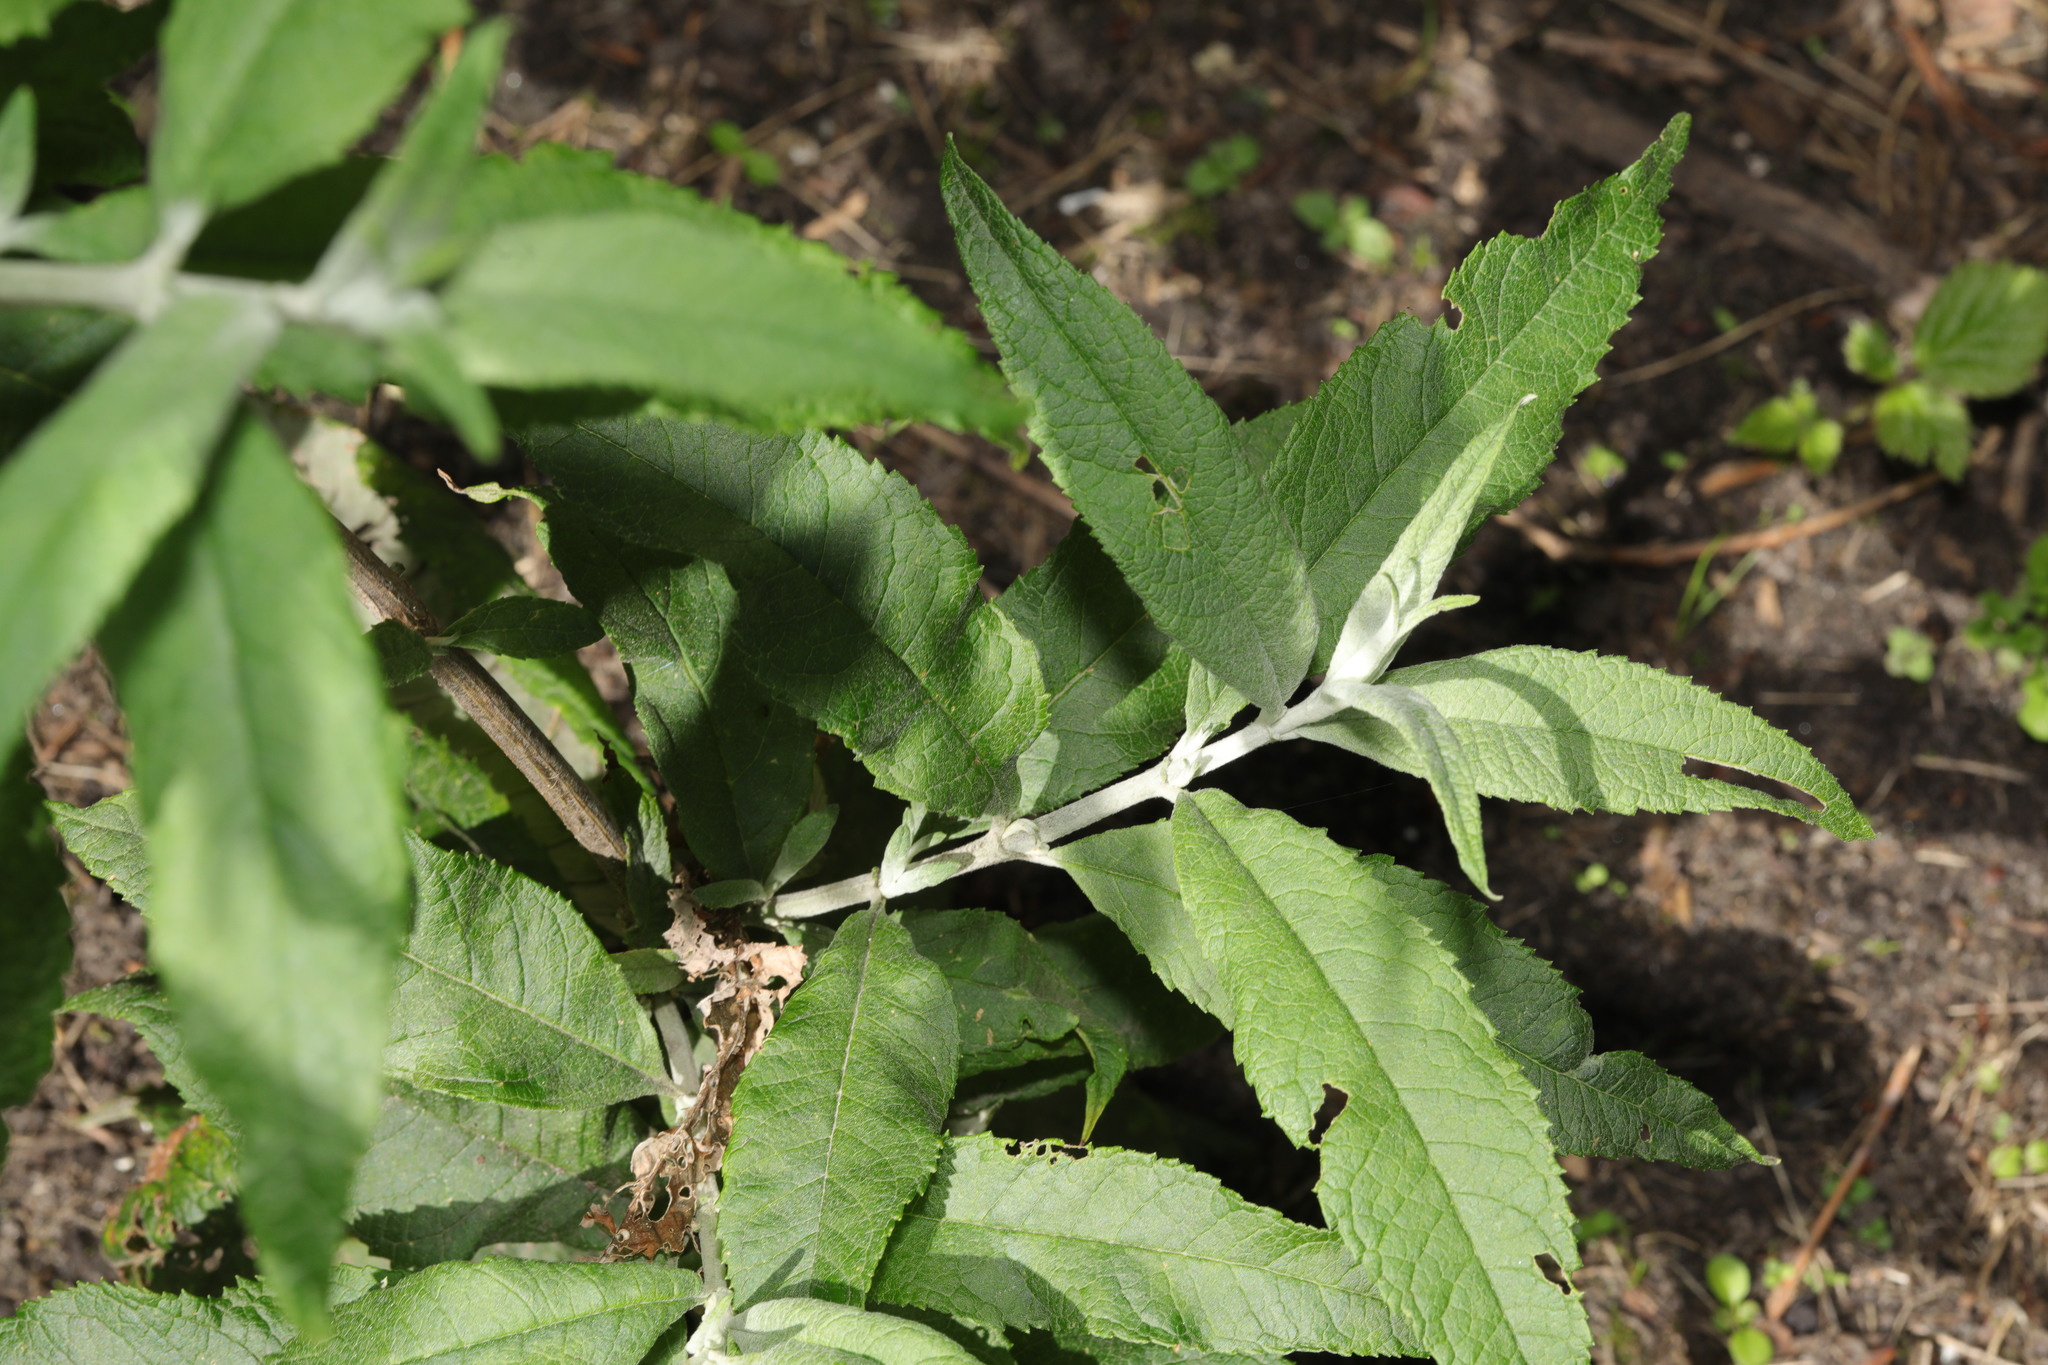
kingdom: Plantae
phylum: Tracheophyta
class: Magnoliopsida
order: Lamiales
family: Scrophulariaceae
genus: Buddleja
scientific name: Buddleja davidii
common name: Butterfly-bush
